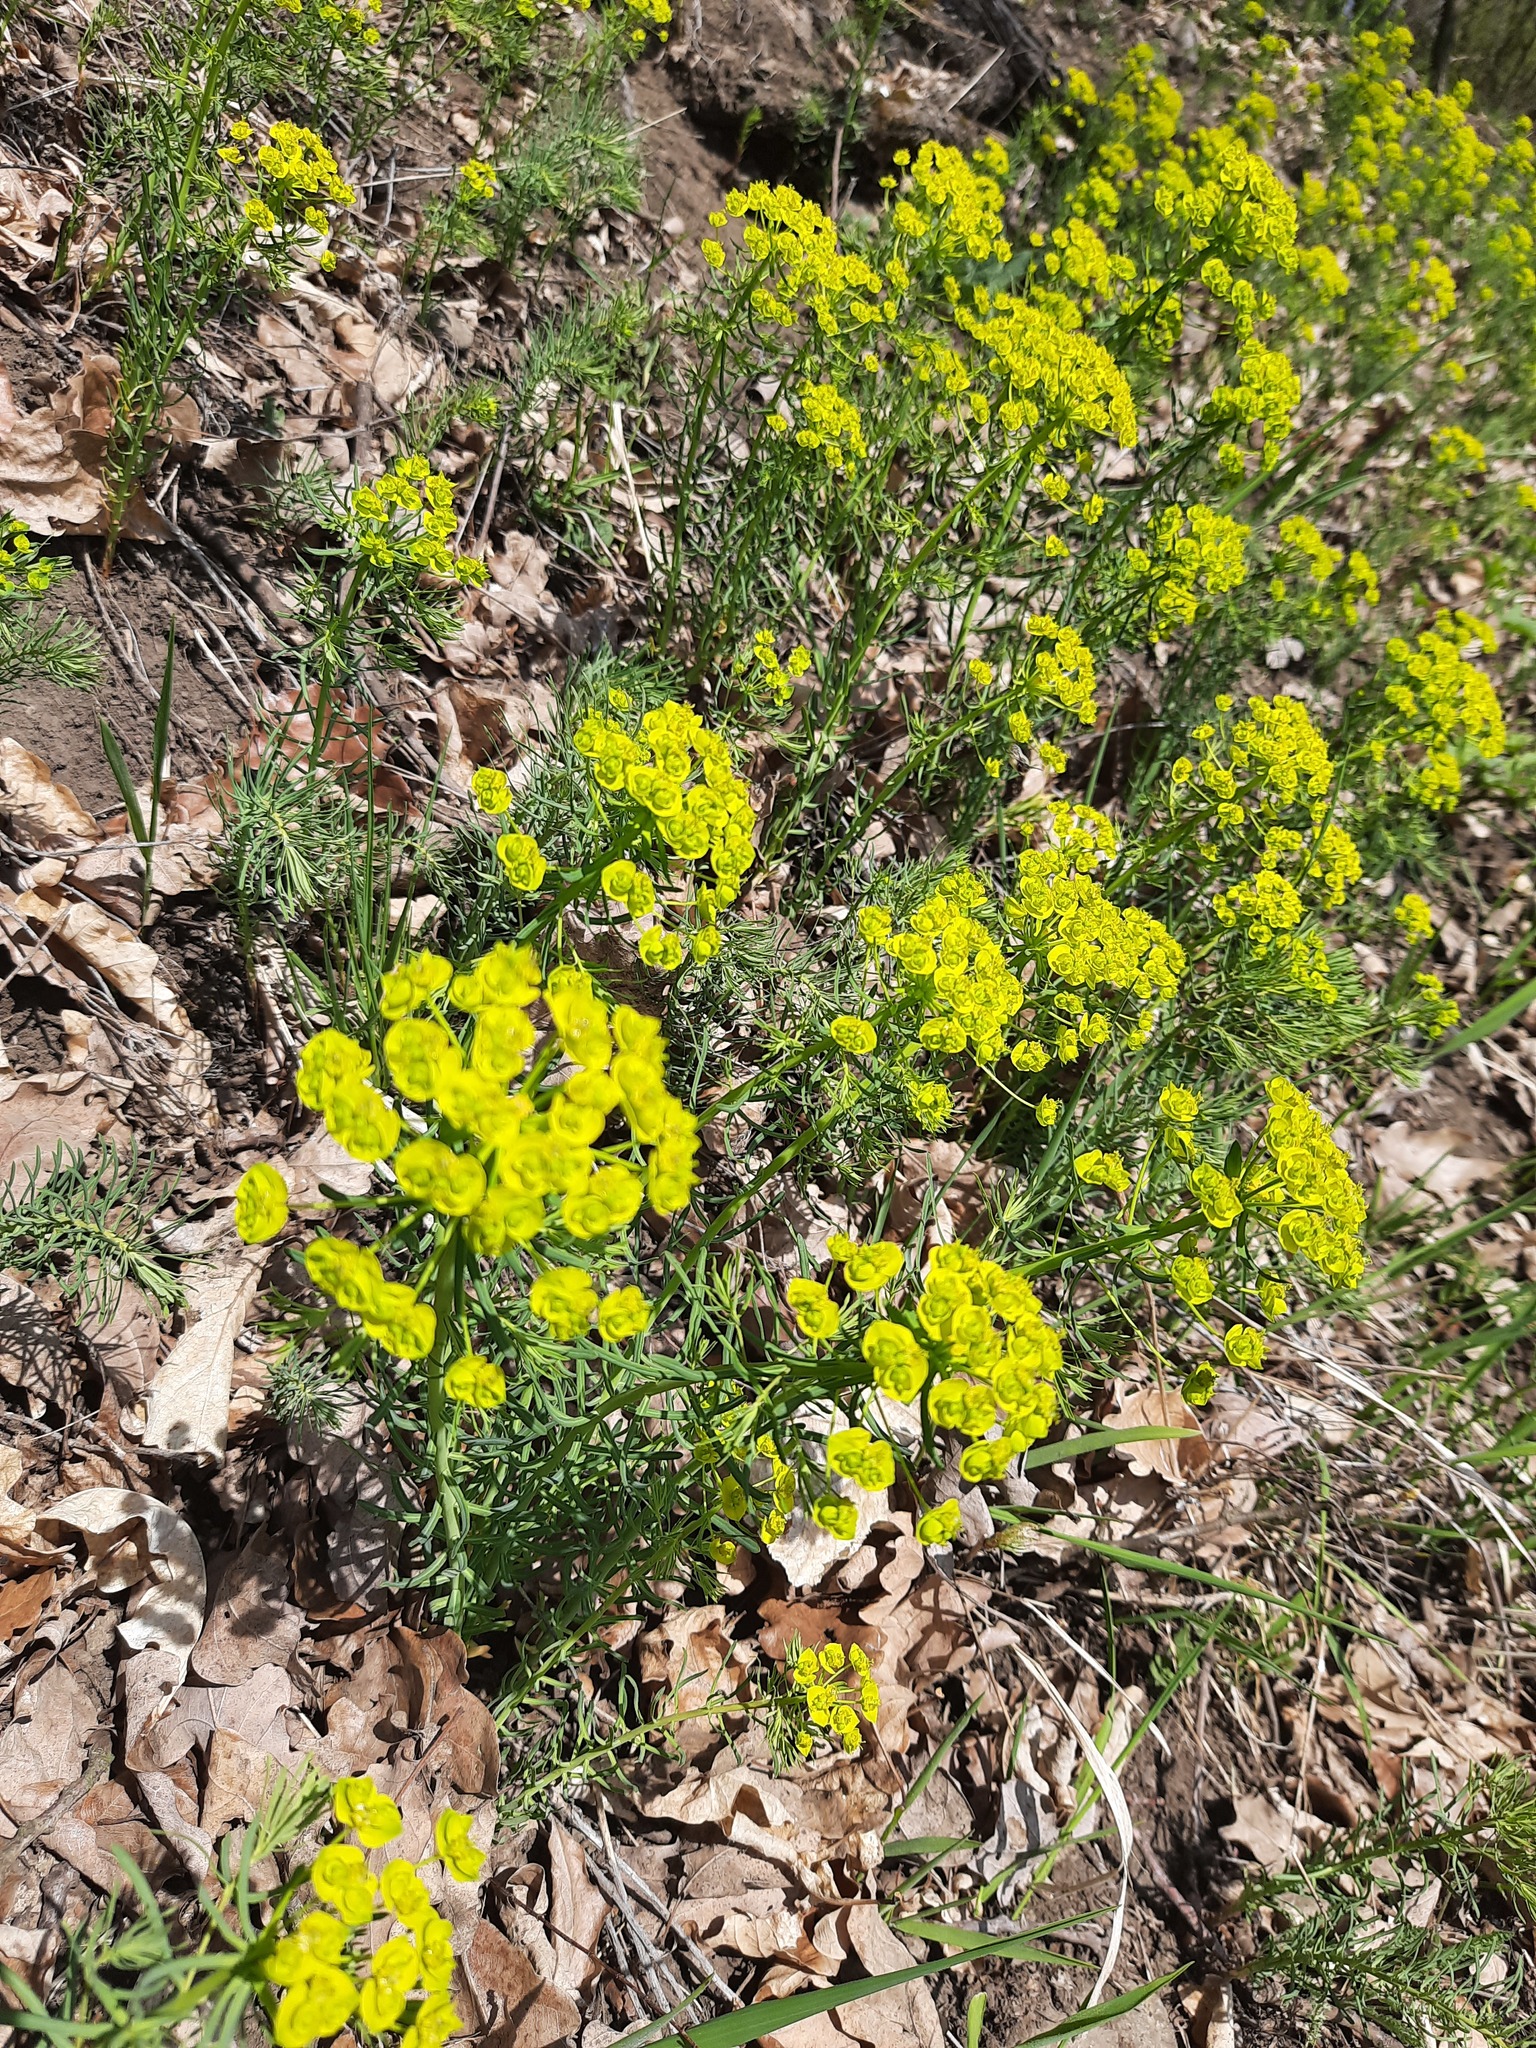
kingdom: Plantae
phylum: Tracheophyta
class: Magnoliopsida
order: Malpighiales
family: Euphorbiaceae
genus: Euphorbia
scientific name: Euphorbia cyparissias
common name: Cypress spurge
